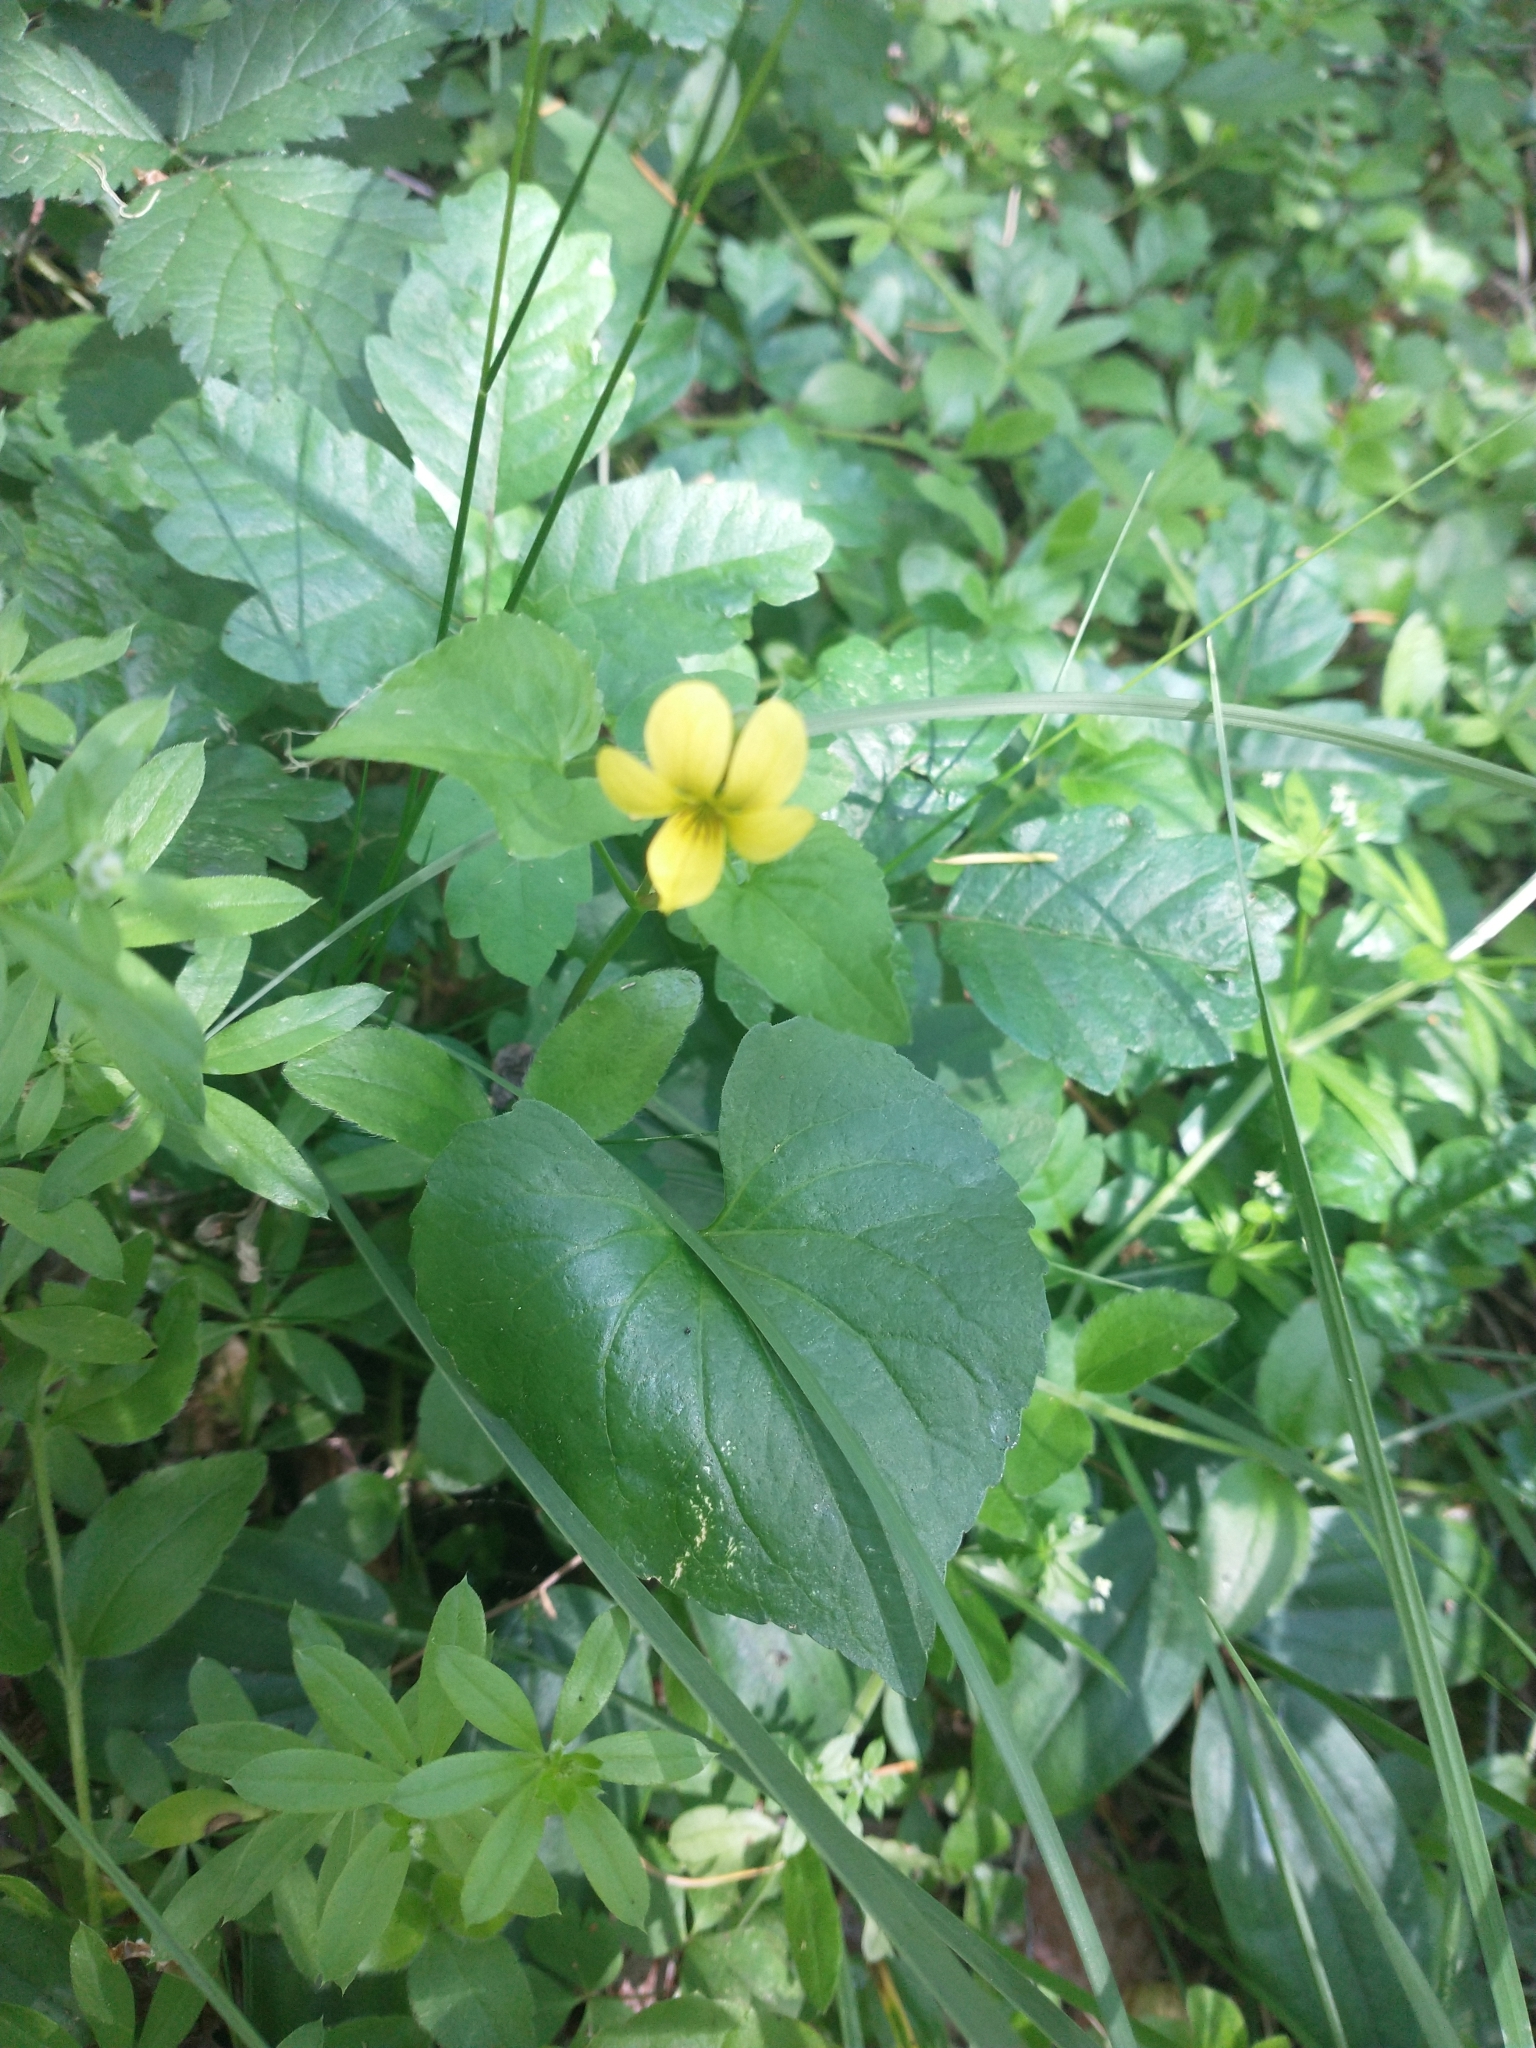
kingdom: Plantae
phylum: Tracheophyta
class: Magnoliopsida
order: Malpighiales
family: Violaceae
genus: Viola
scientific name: Viola glabella
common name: Stream violet
